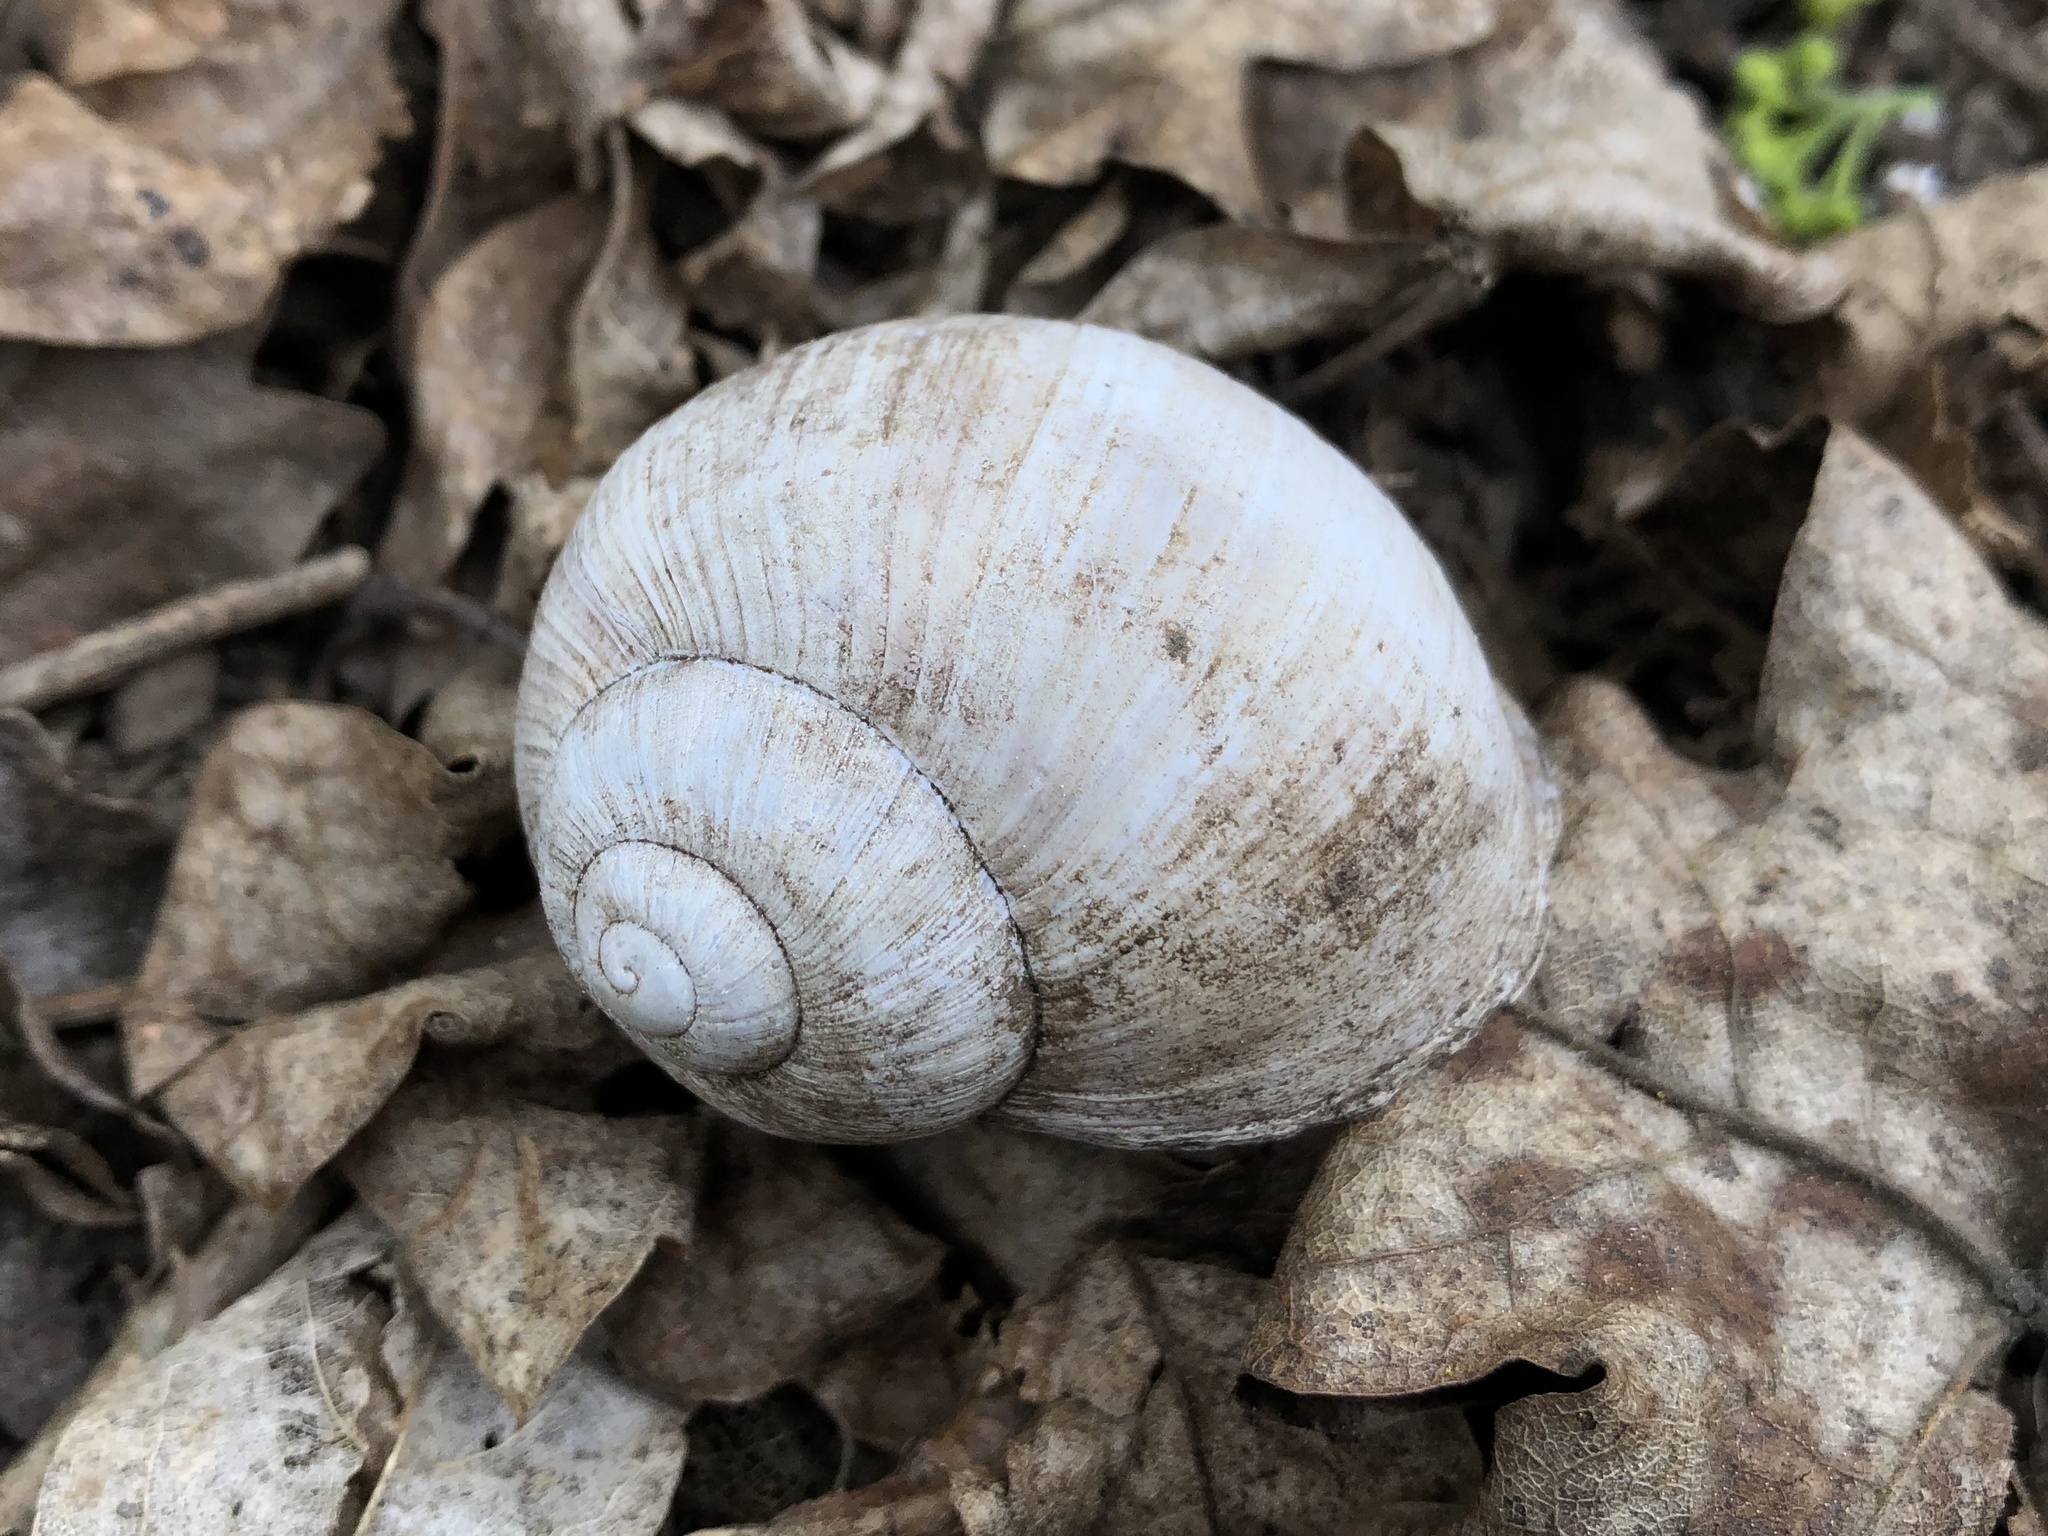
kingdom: Animalia
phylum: Mollusca
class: Gastropoda
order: Stylommatophora
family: Helicidae
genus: Helix
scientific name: Helix pomatia
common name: Roman snail
